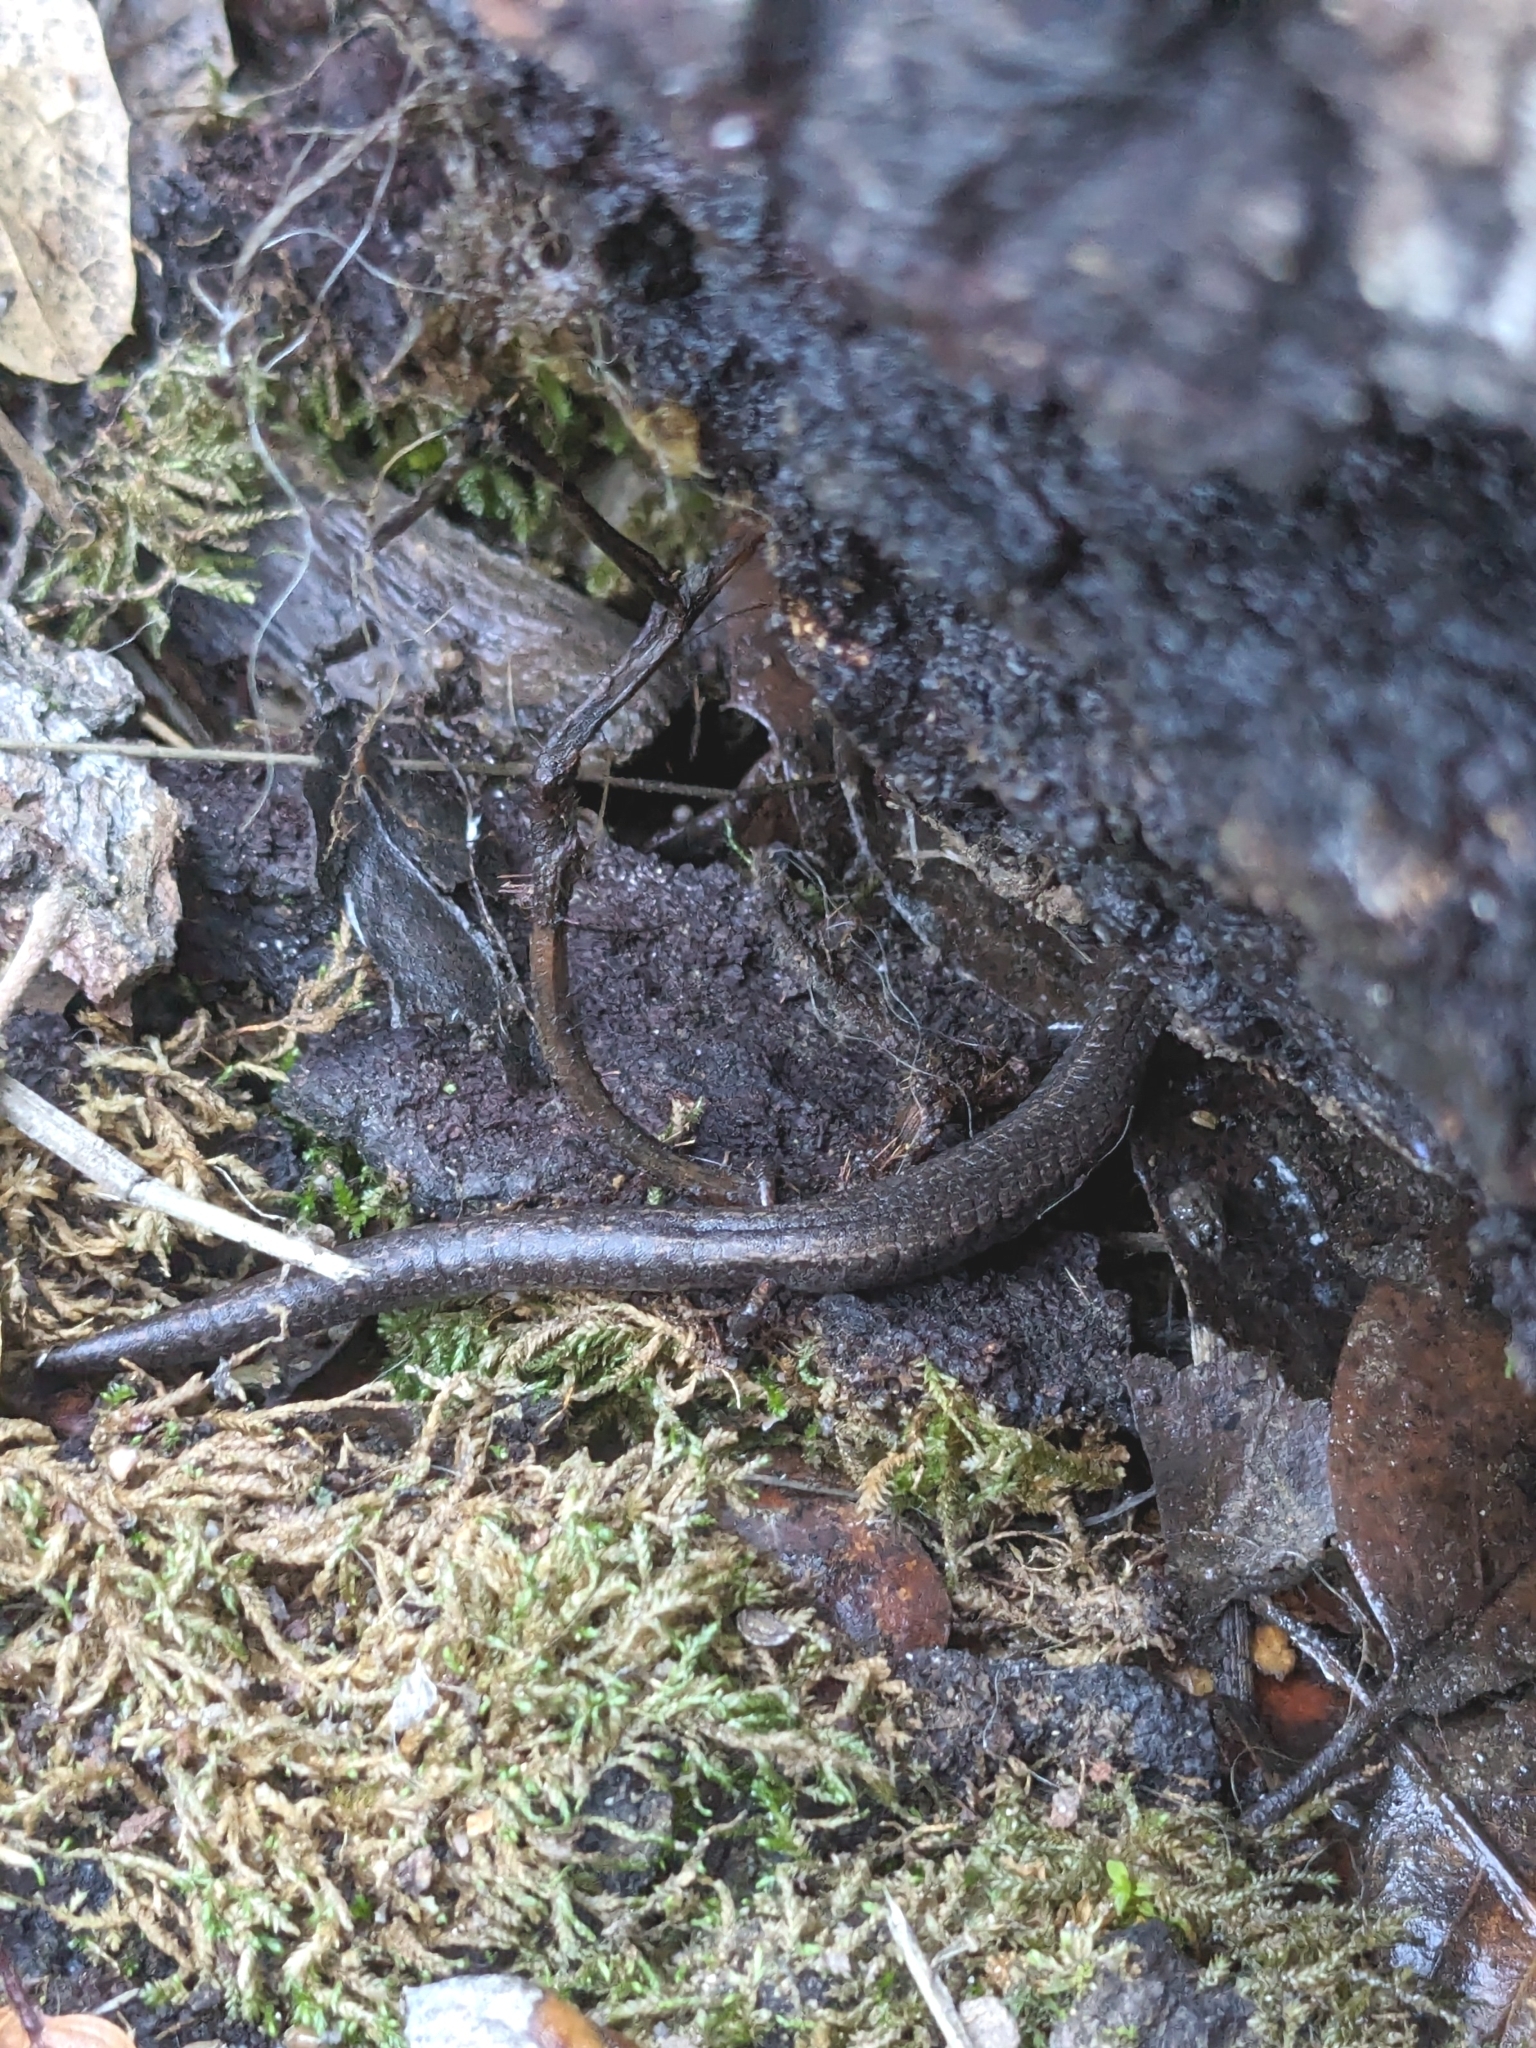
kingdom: Animalia
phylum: Chordata
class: Amphibia
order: Caudata
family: Plethodontidae
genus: Batrachoseps
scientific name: Batrachoseps attenuatus
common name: California slender salamander
